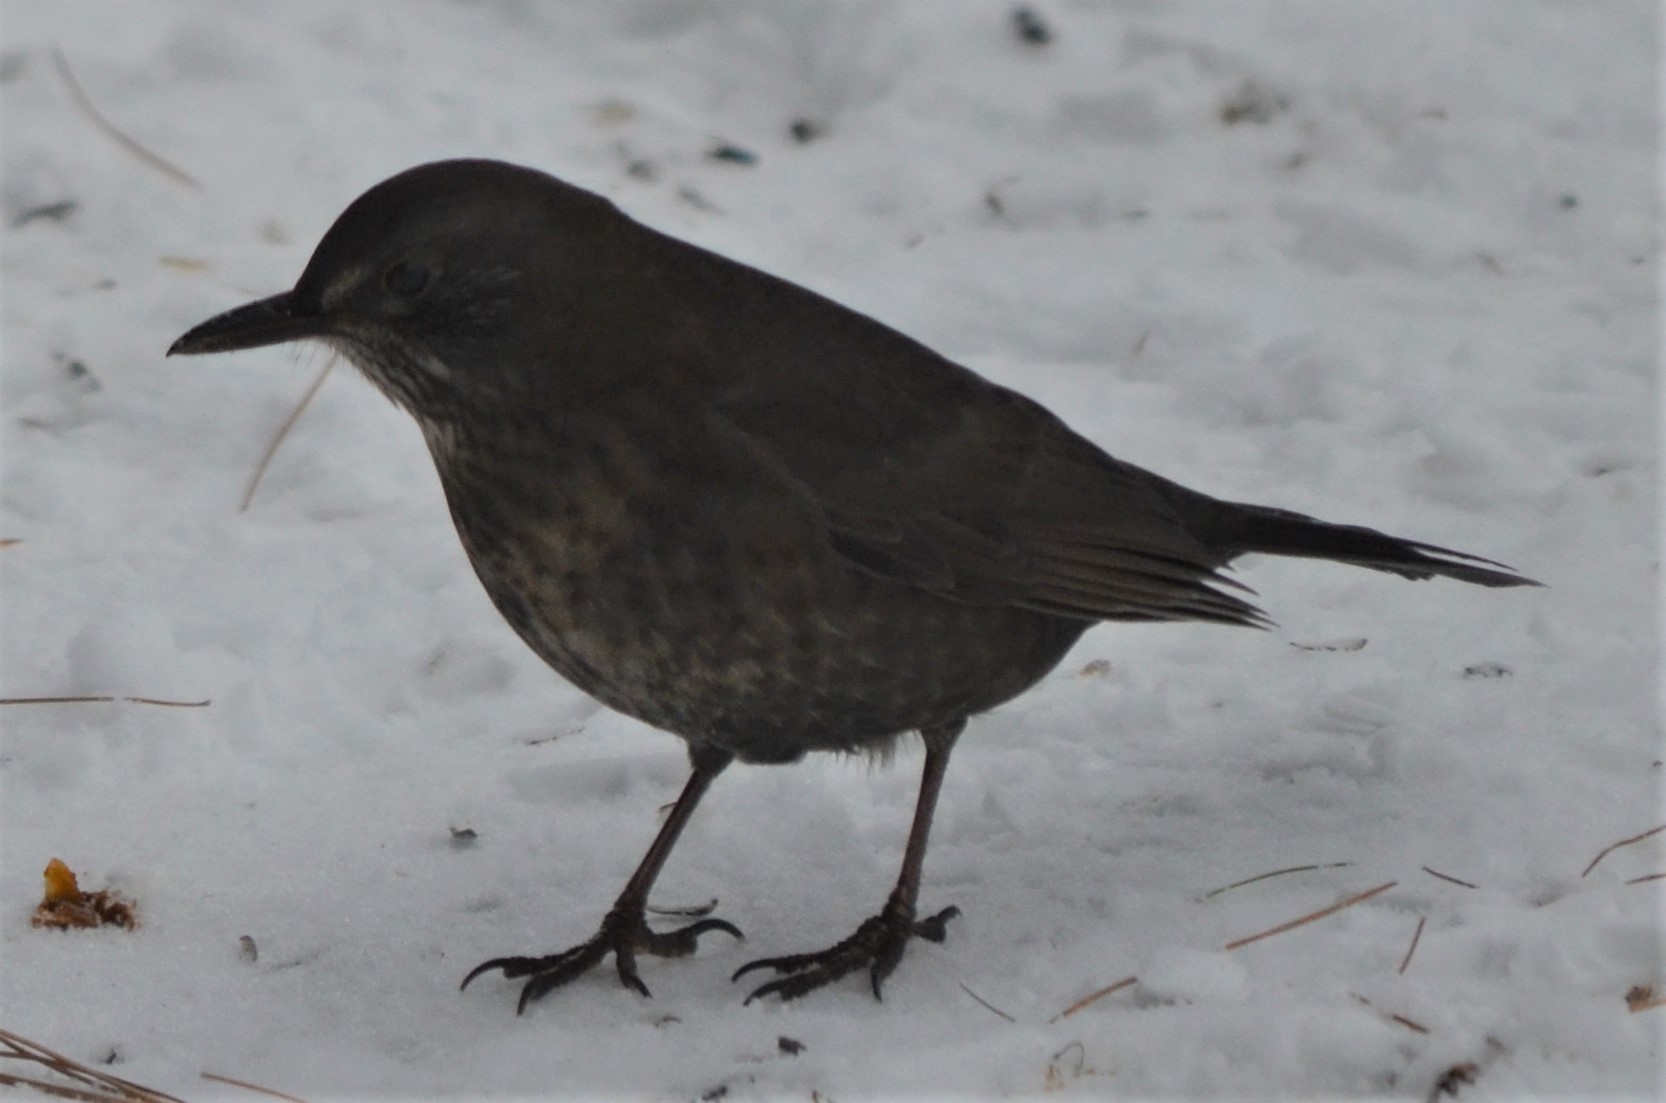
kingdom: Animalia
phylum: Chordata
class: Aves
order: Passeriformes
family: Turdidae
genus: Turdus
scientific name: Turdus merula
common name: Common blackbird
